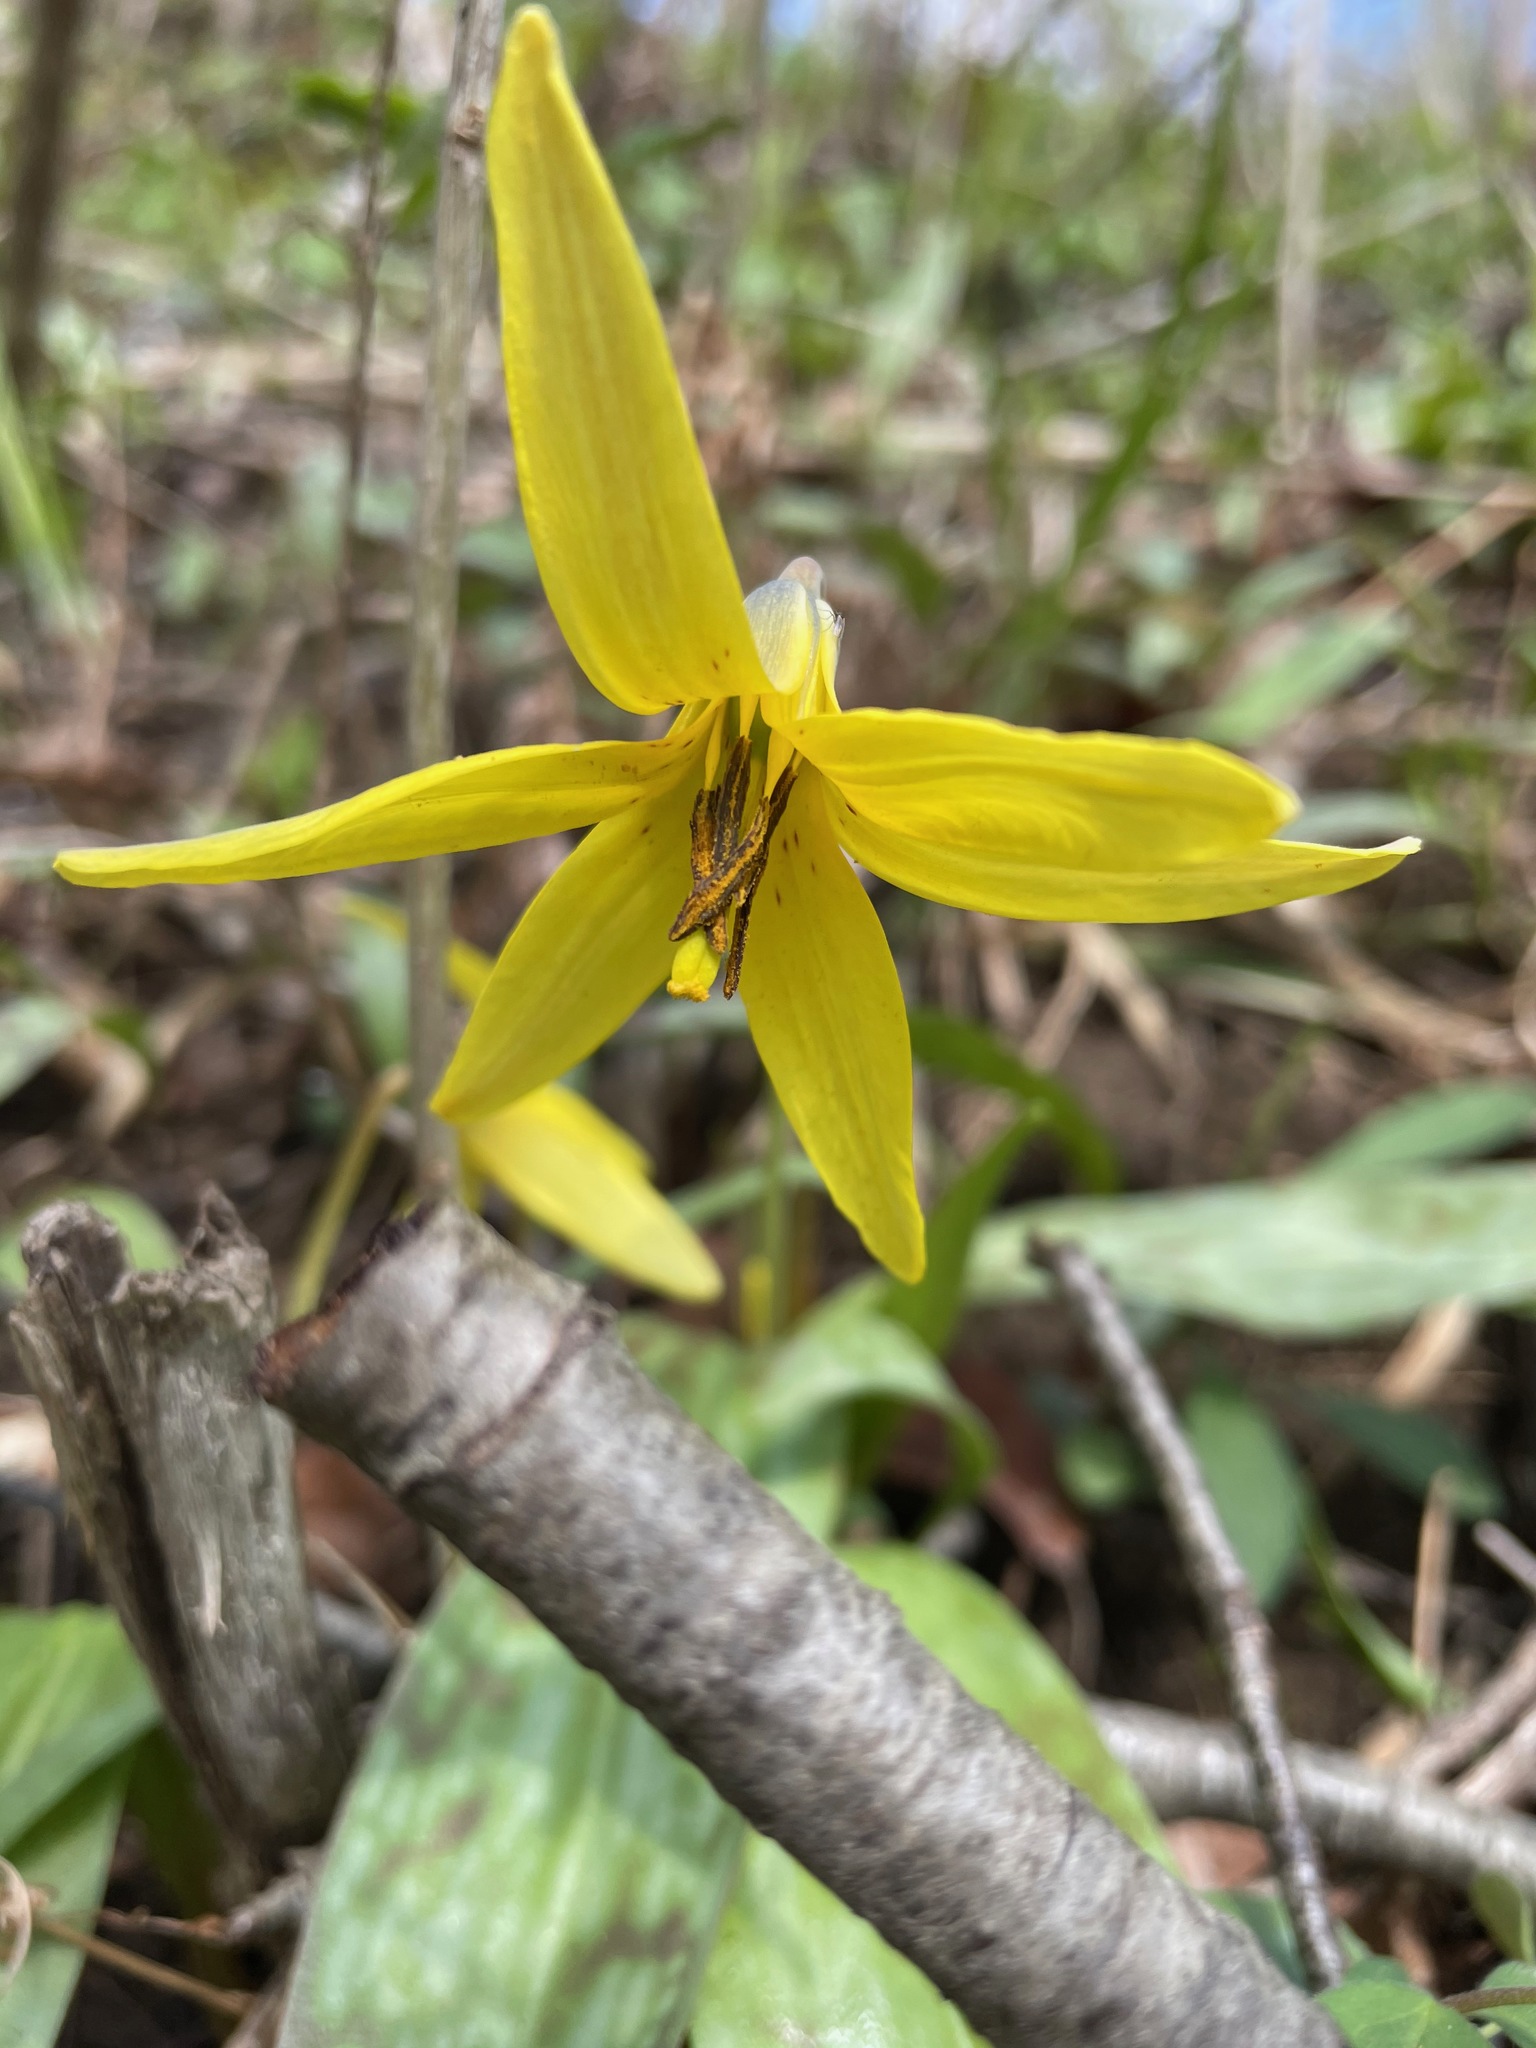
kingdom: Plantae
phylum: Tracheophyta
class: Liliopsida
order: Liliales
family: Liliaceae
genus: Erythronium
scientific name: Erythronium americanum
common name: Yellow adder's-tongue
